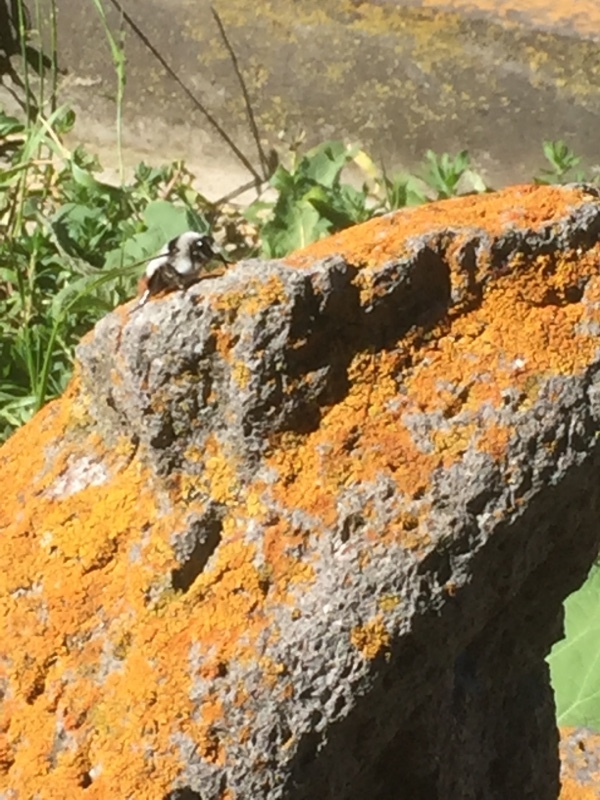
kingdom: Animalia
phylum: Arthropoda
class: Insecta
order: Hymenoptera
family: Apidae
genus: Bombus
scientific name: Bombus niveatus
